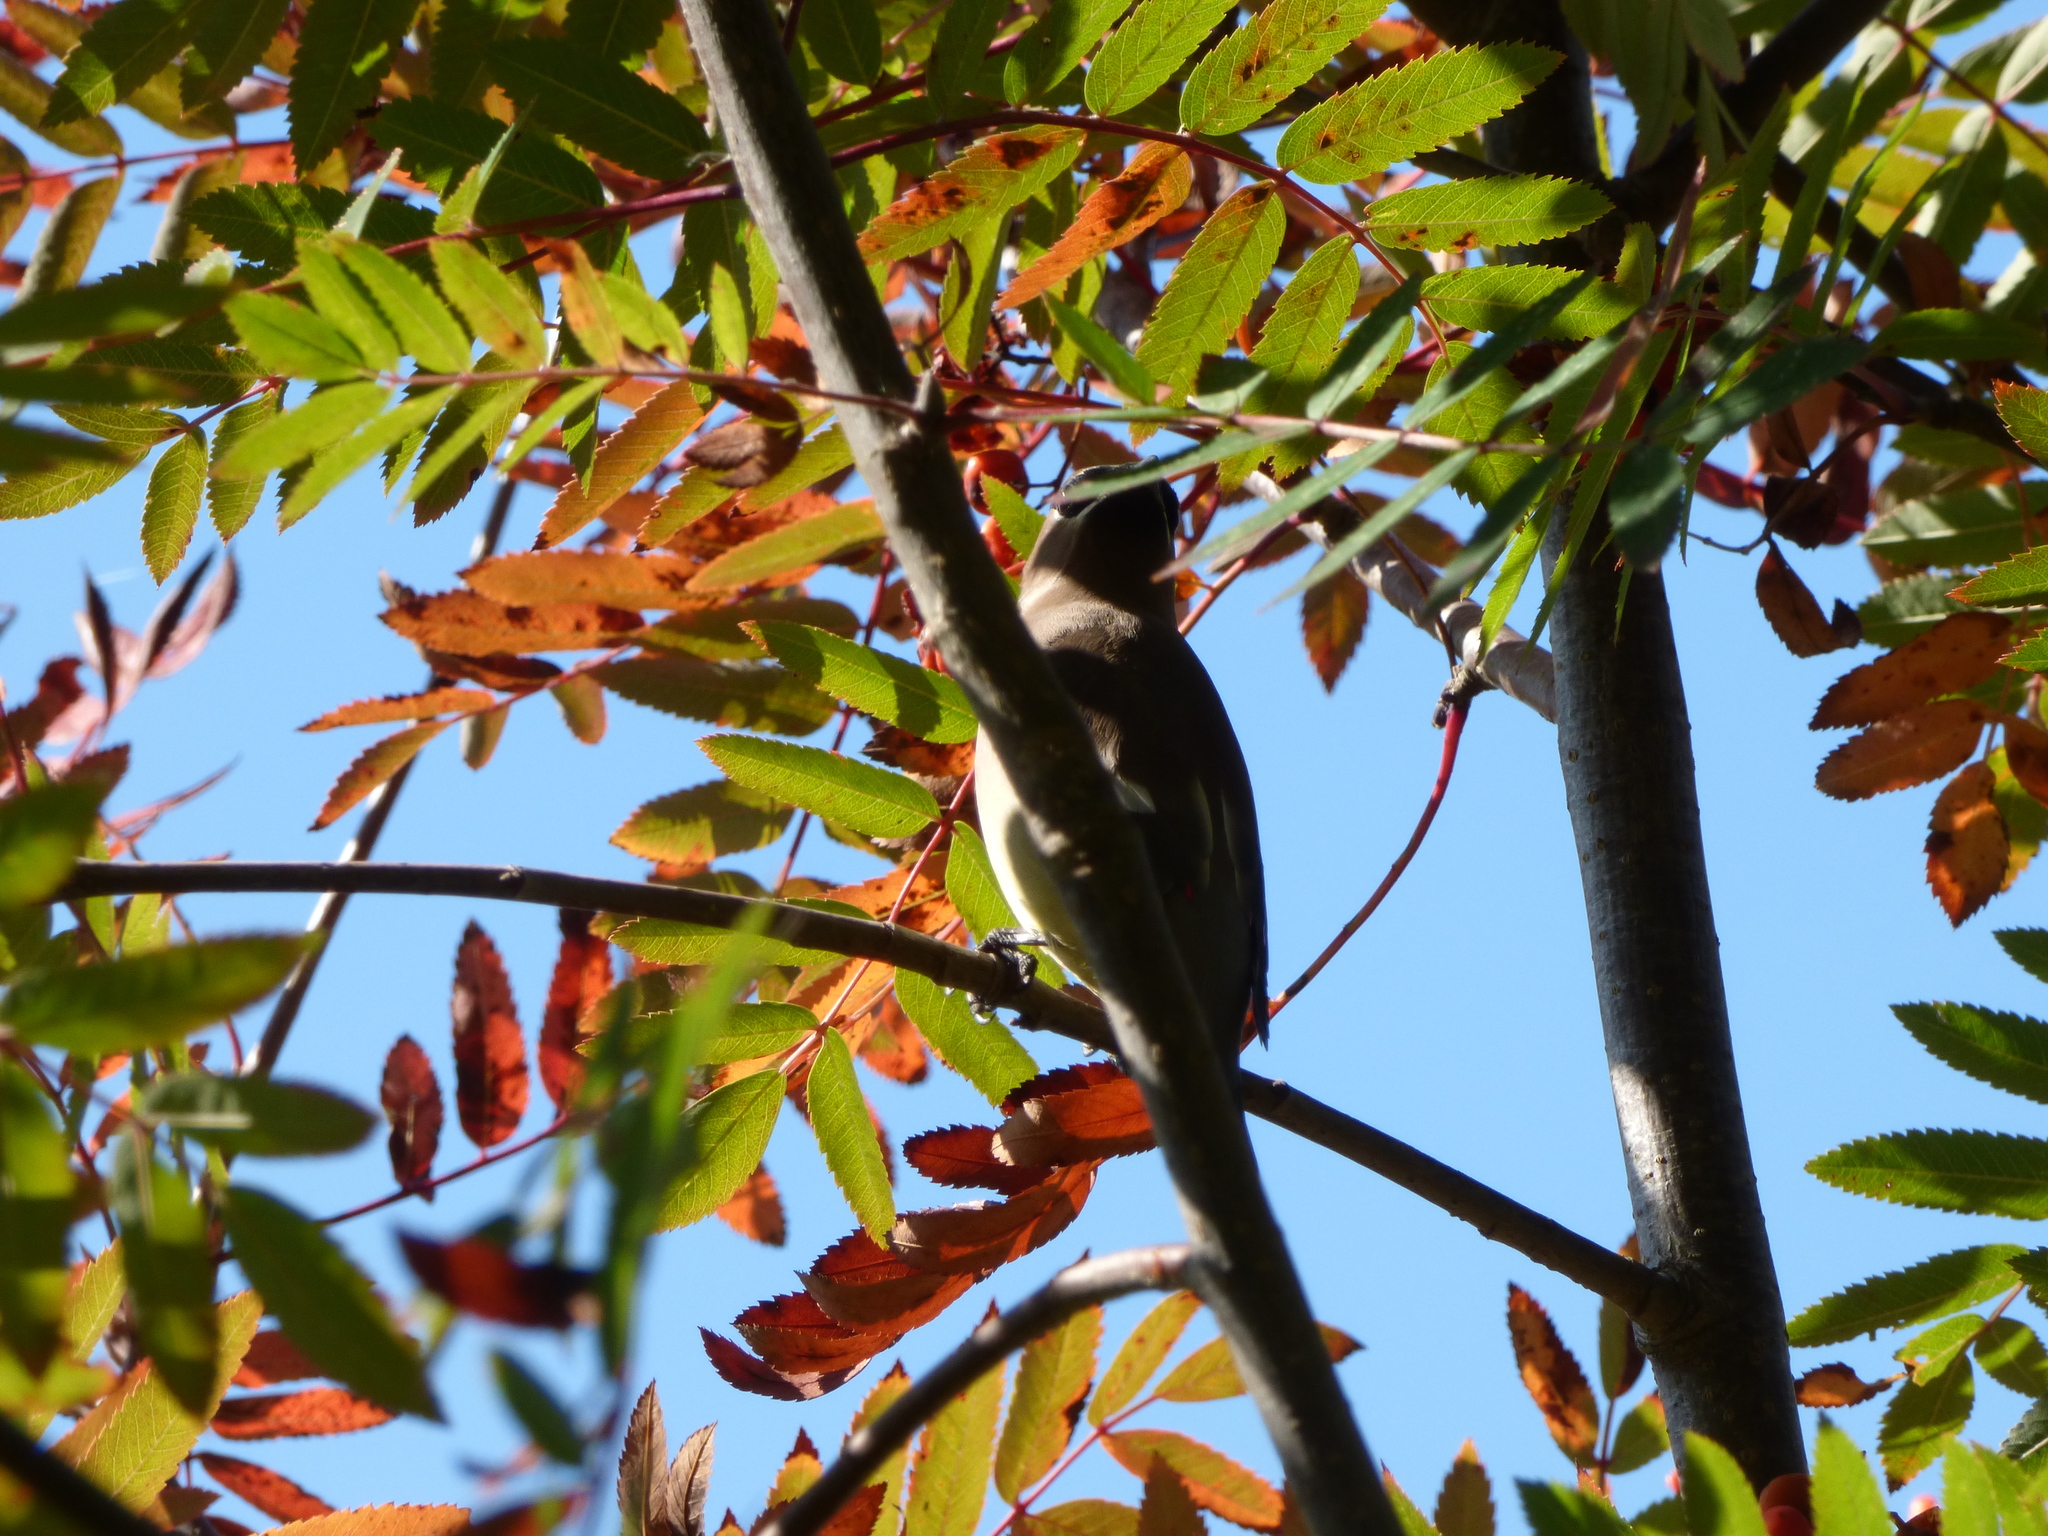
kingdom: Animalia
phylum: Chordata
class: Aves
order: Passeriformes
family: Bombycillidae
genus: Bombycilla
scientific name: Bombycilla cedrorum
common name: Cedar waxwing
